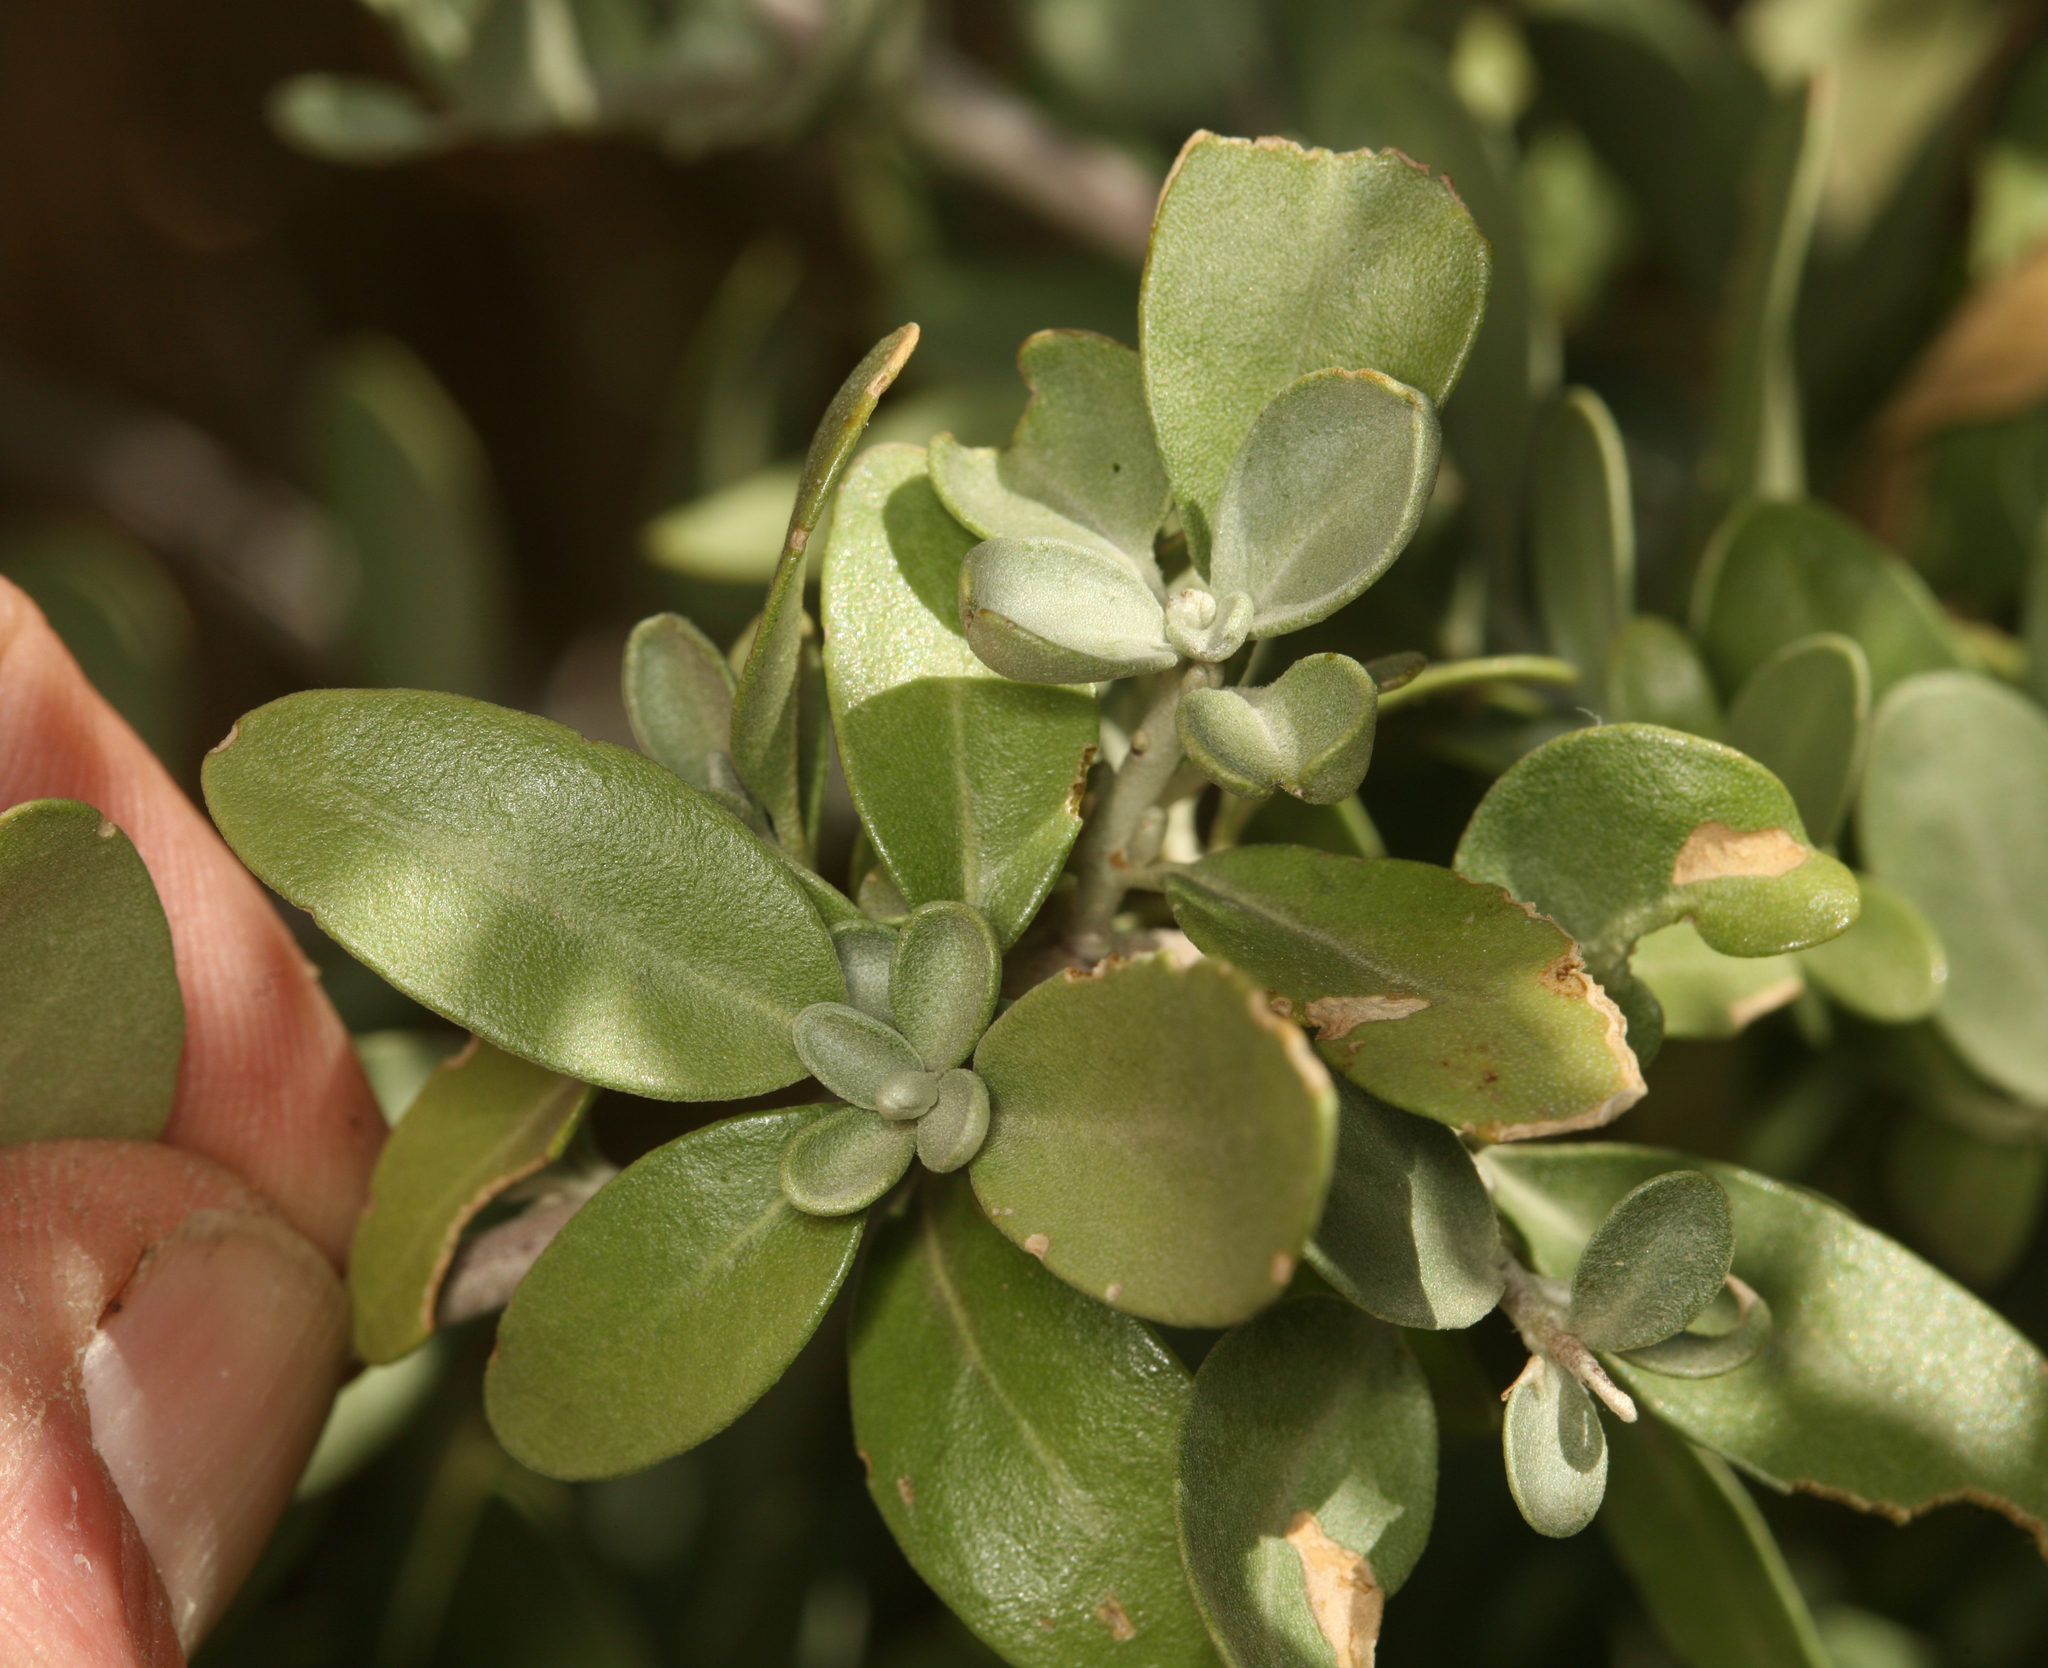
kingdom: Plantae
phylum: Tracheophyta
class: Magnoliopsida
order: Rosales
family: Elaeagnaceae
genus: Shepherdia
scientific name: Shepherdia argentea
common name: Silver buffaloberry
